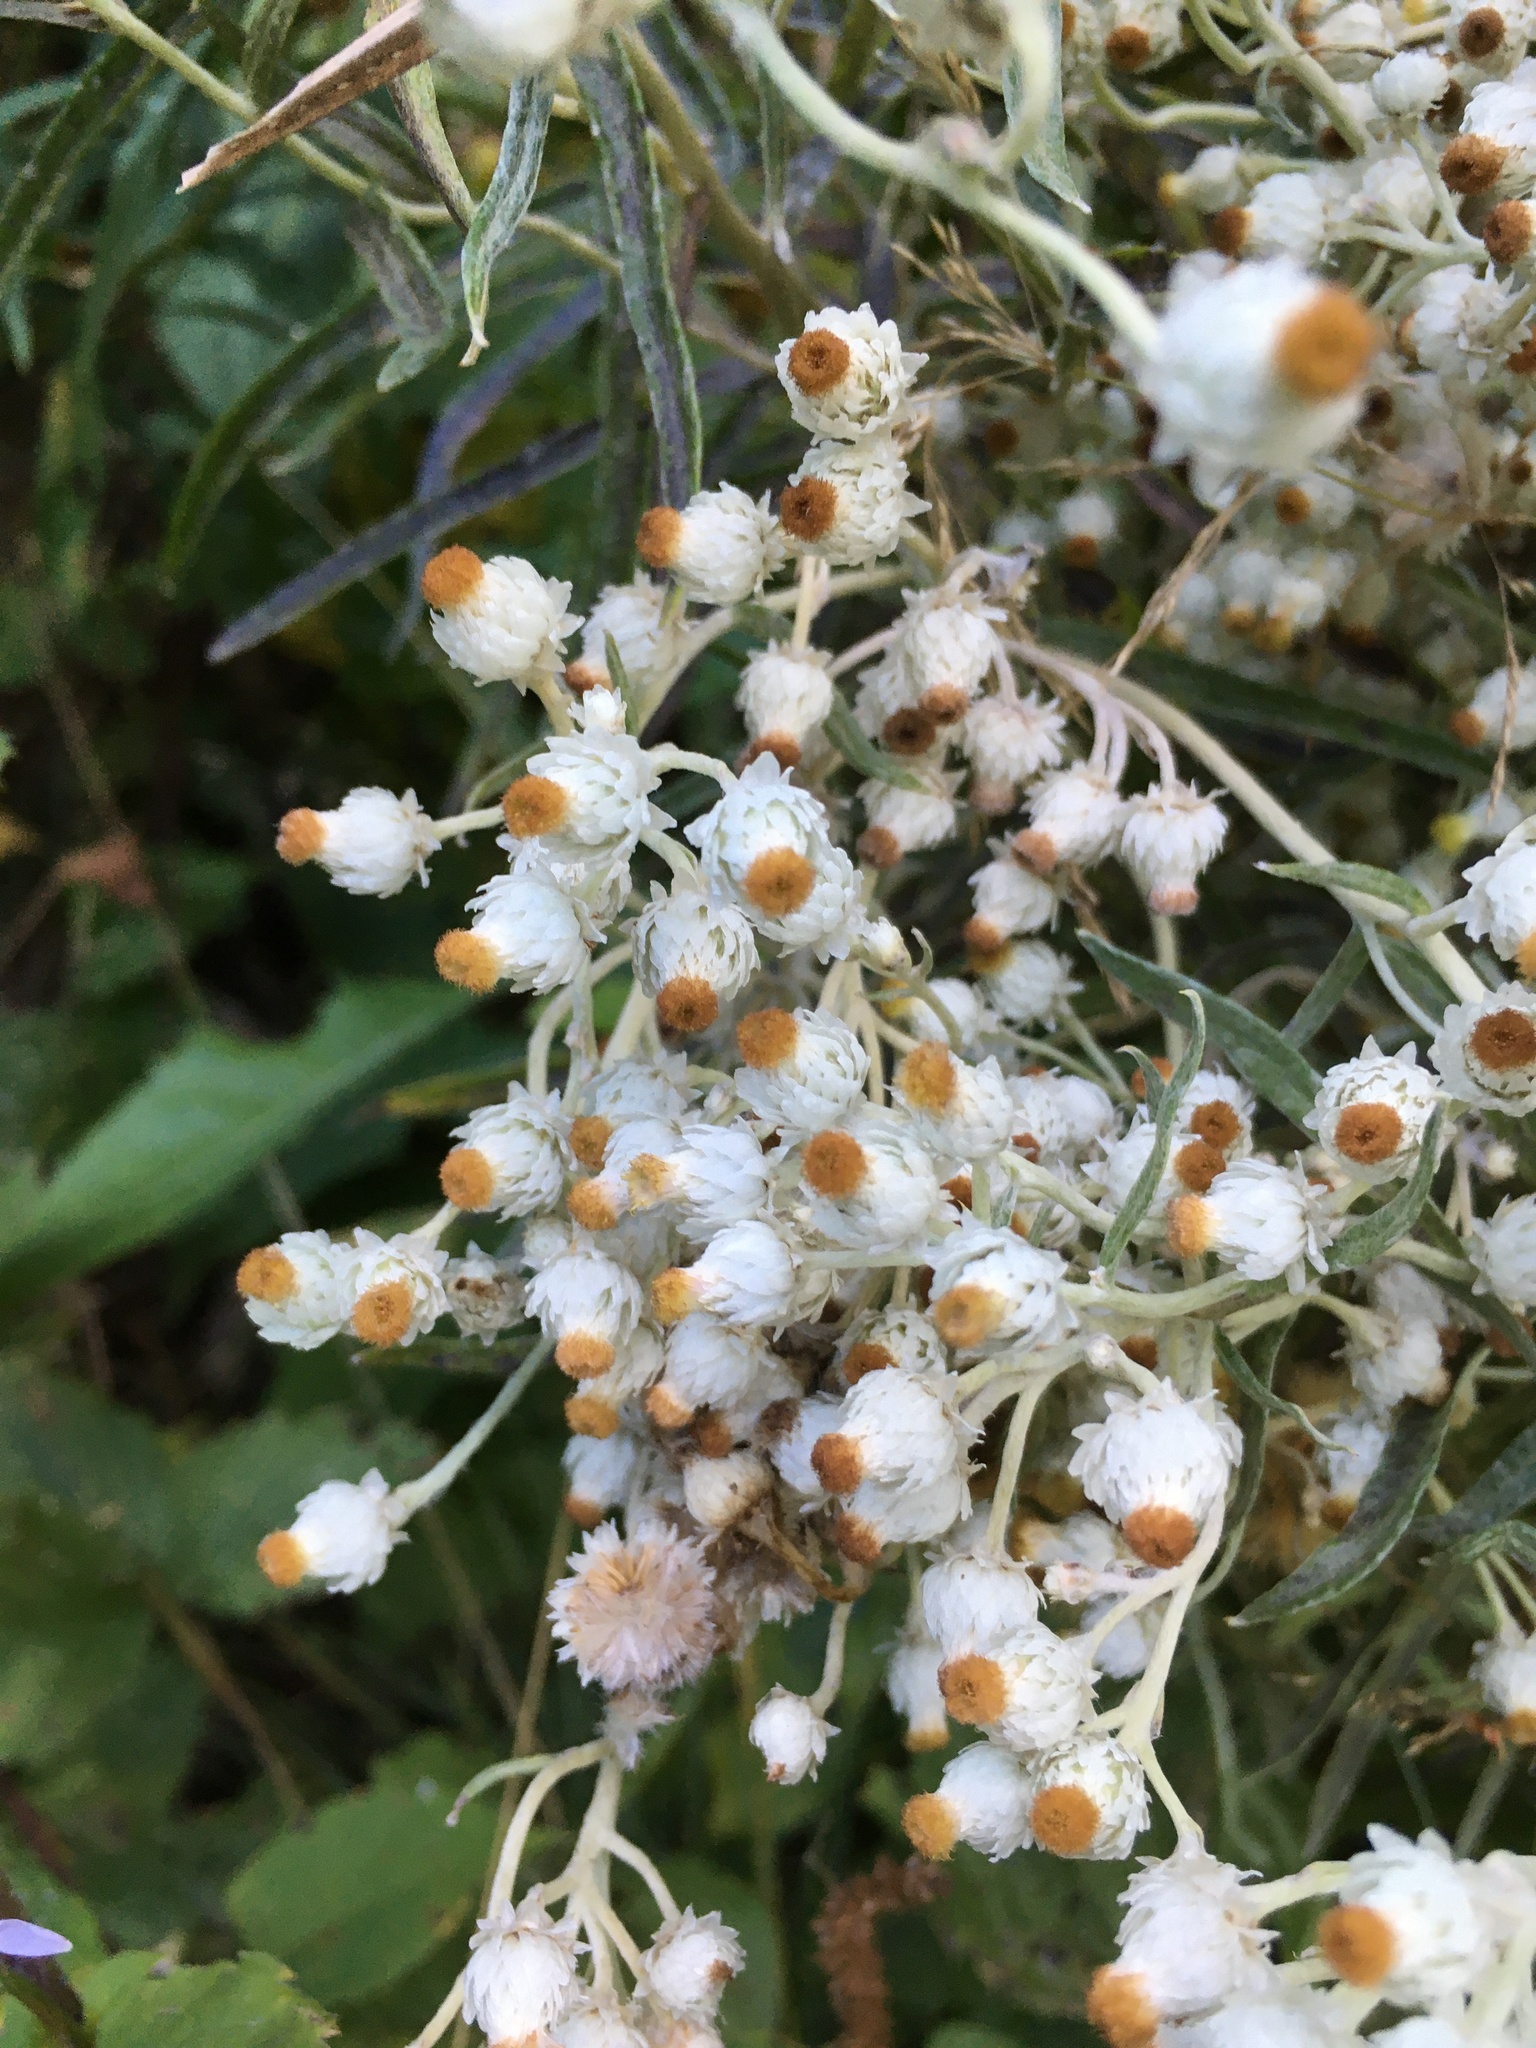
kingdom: Plantae
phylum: Tracheophyta
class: Magnoliopsida
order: Asterales
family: Asteraceae
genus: Anaphalis
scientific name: Anaphalis margaritacea
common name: Pearly everlasting
